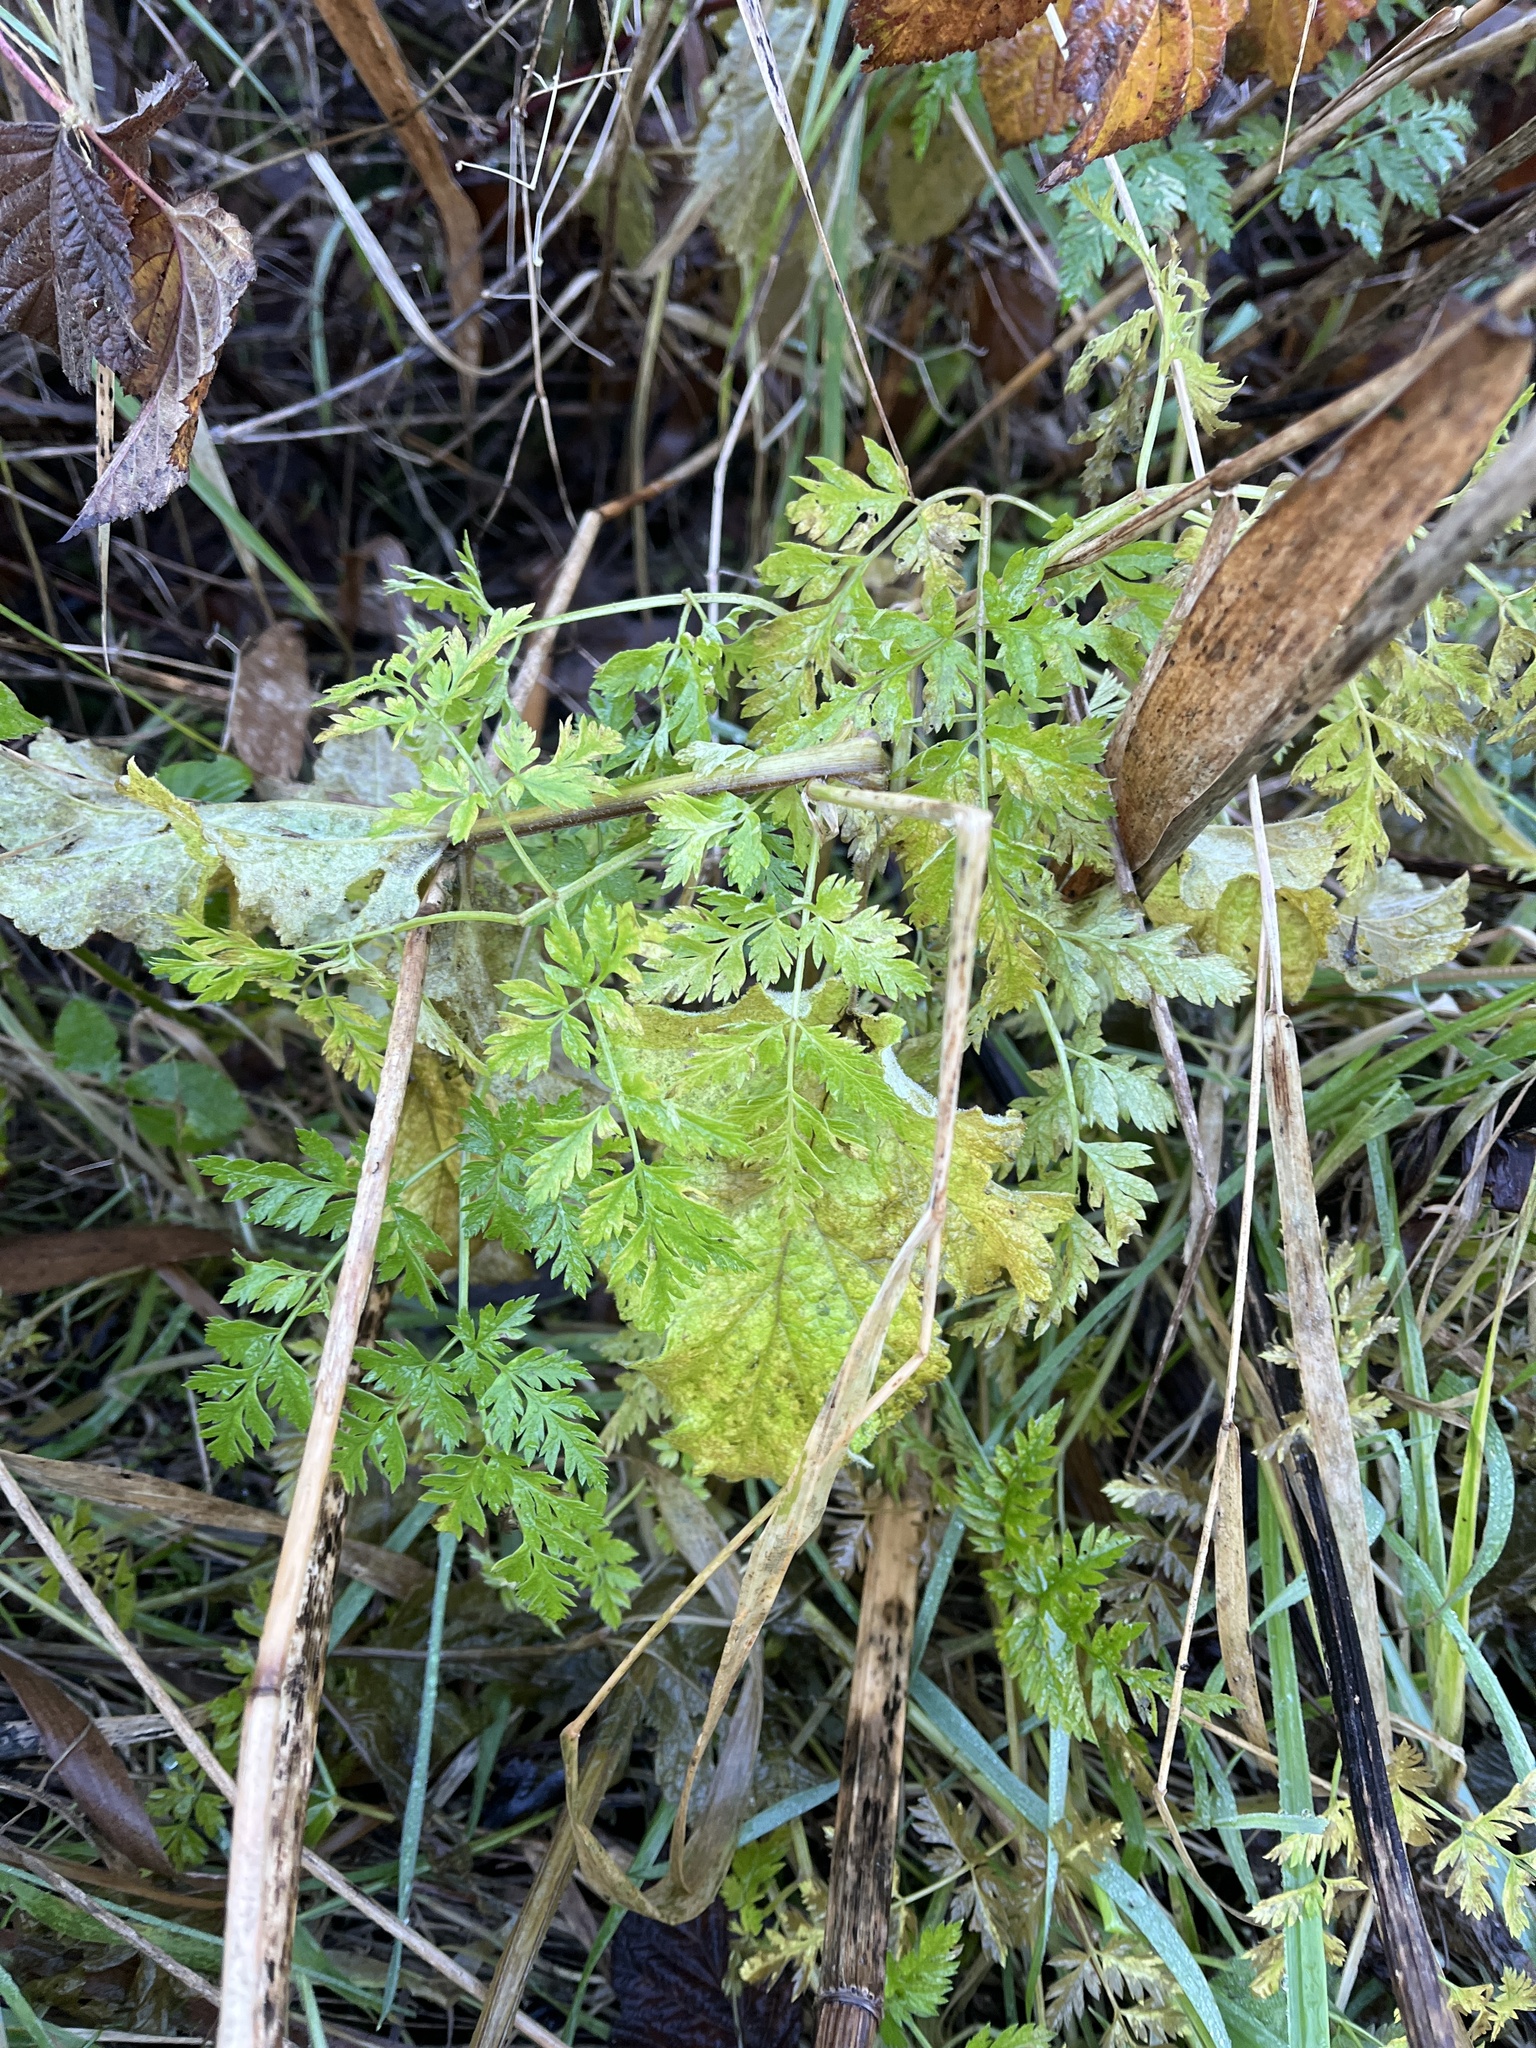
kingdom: Plantae
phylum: Tracheophyta
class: Magnoliopsida
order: Apiales
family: Apiaceae
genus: Conium
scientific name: Conium maculatum
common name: Hemlock
